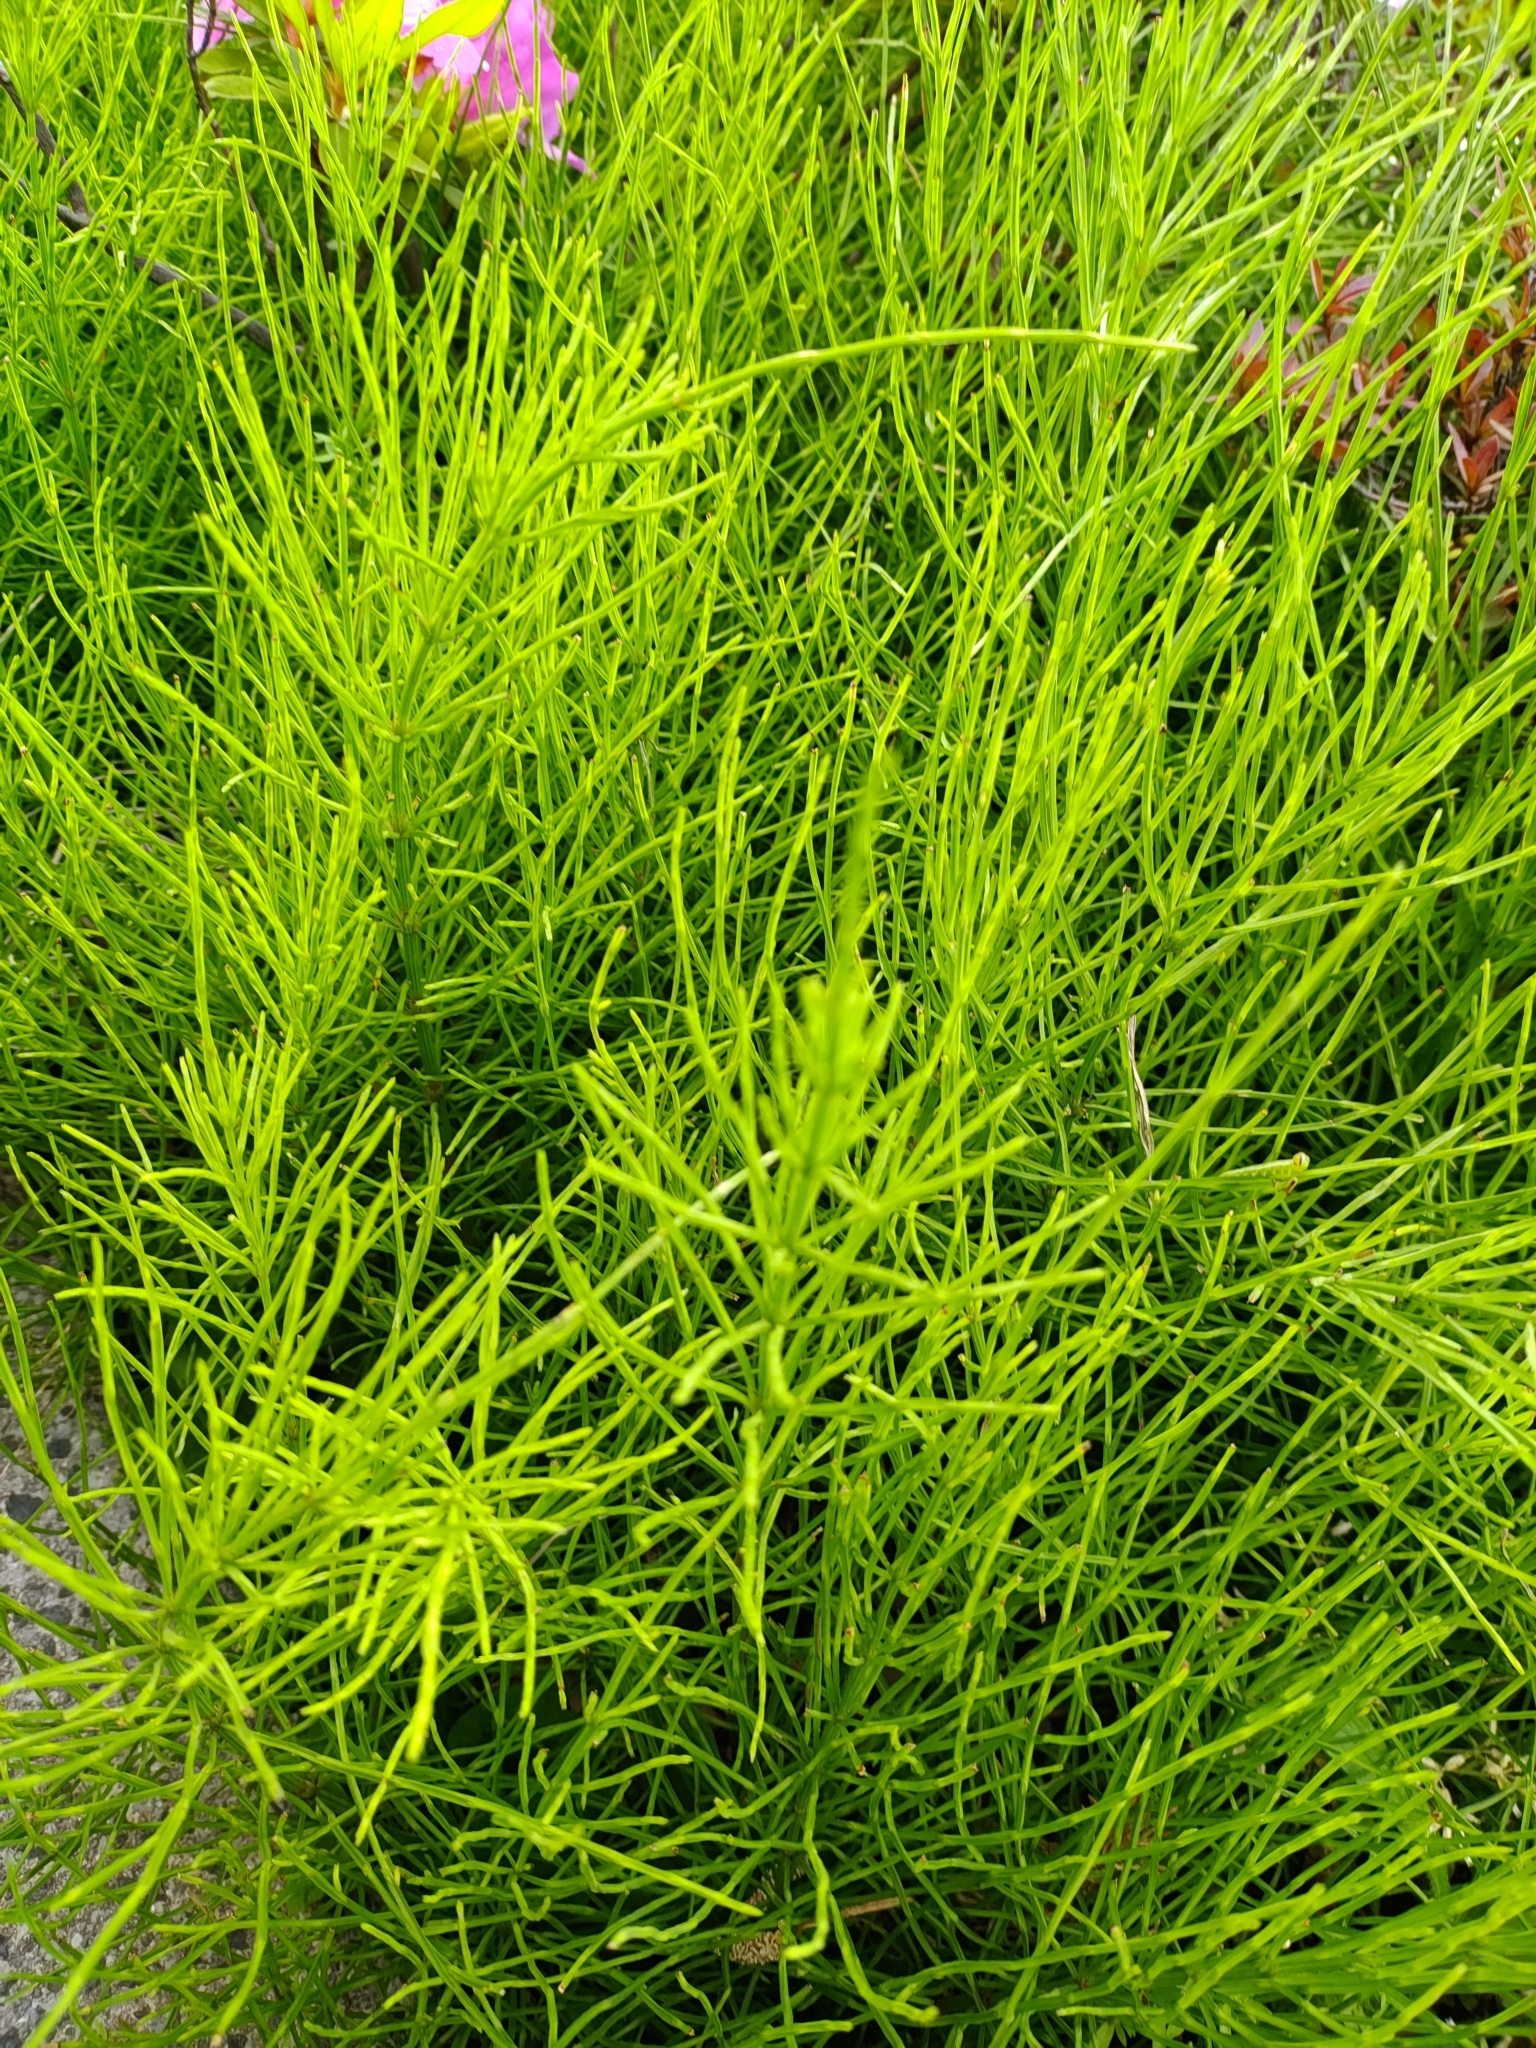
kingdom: Plantae
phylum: Tracheophyta
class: Polypodiopsida
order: Equisetales
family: Equisetaceae
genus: Equisetum
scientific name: Equisetum arvense
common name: Field horsetail
